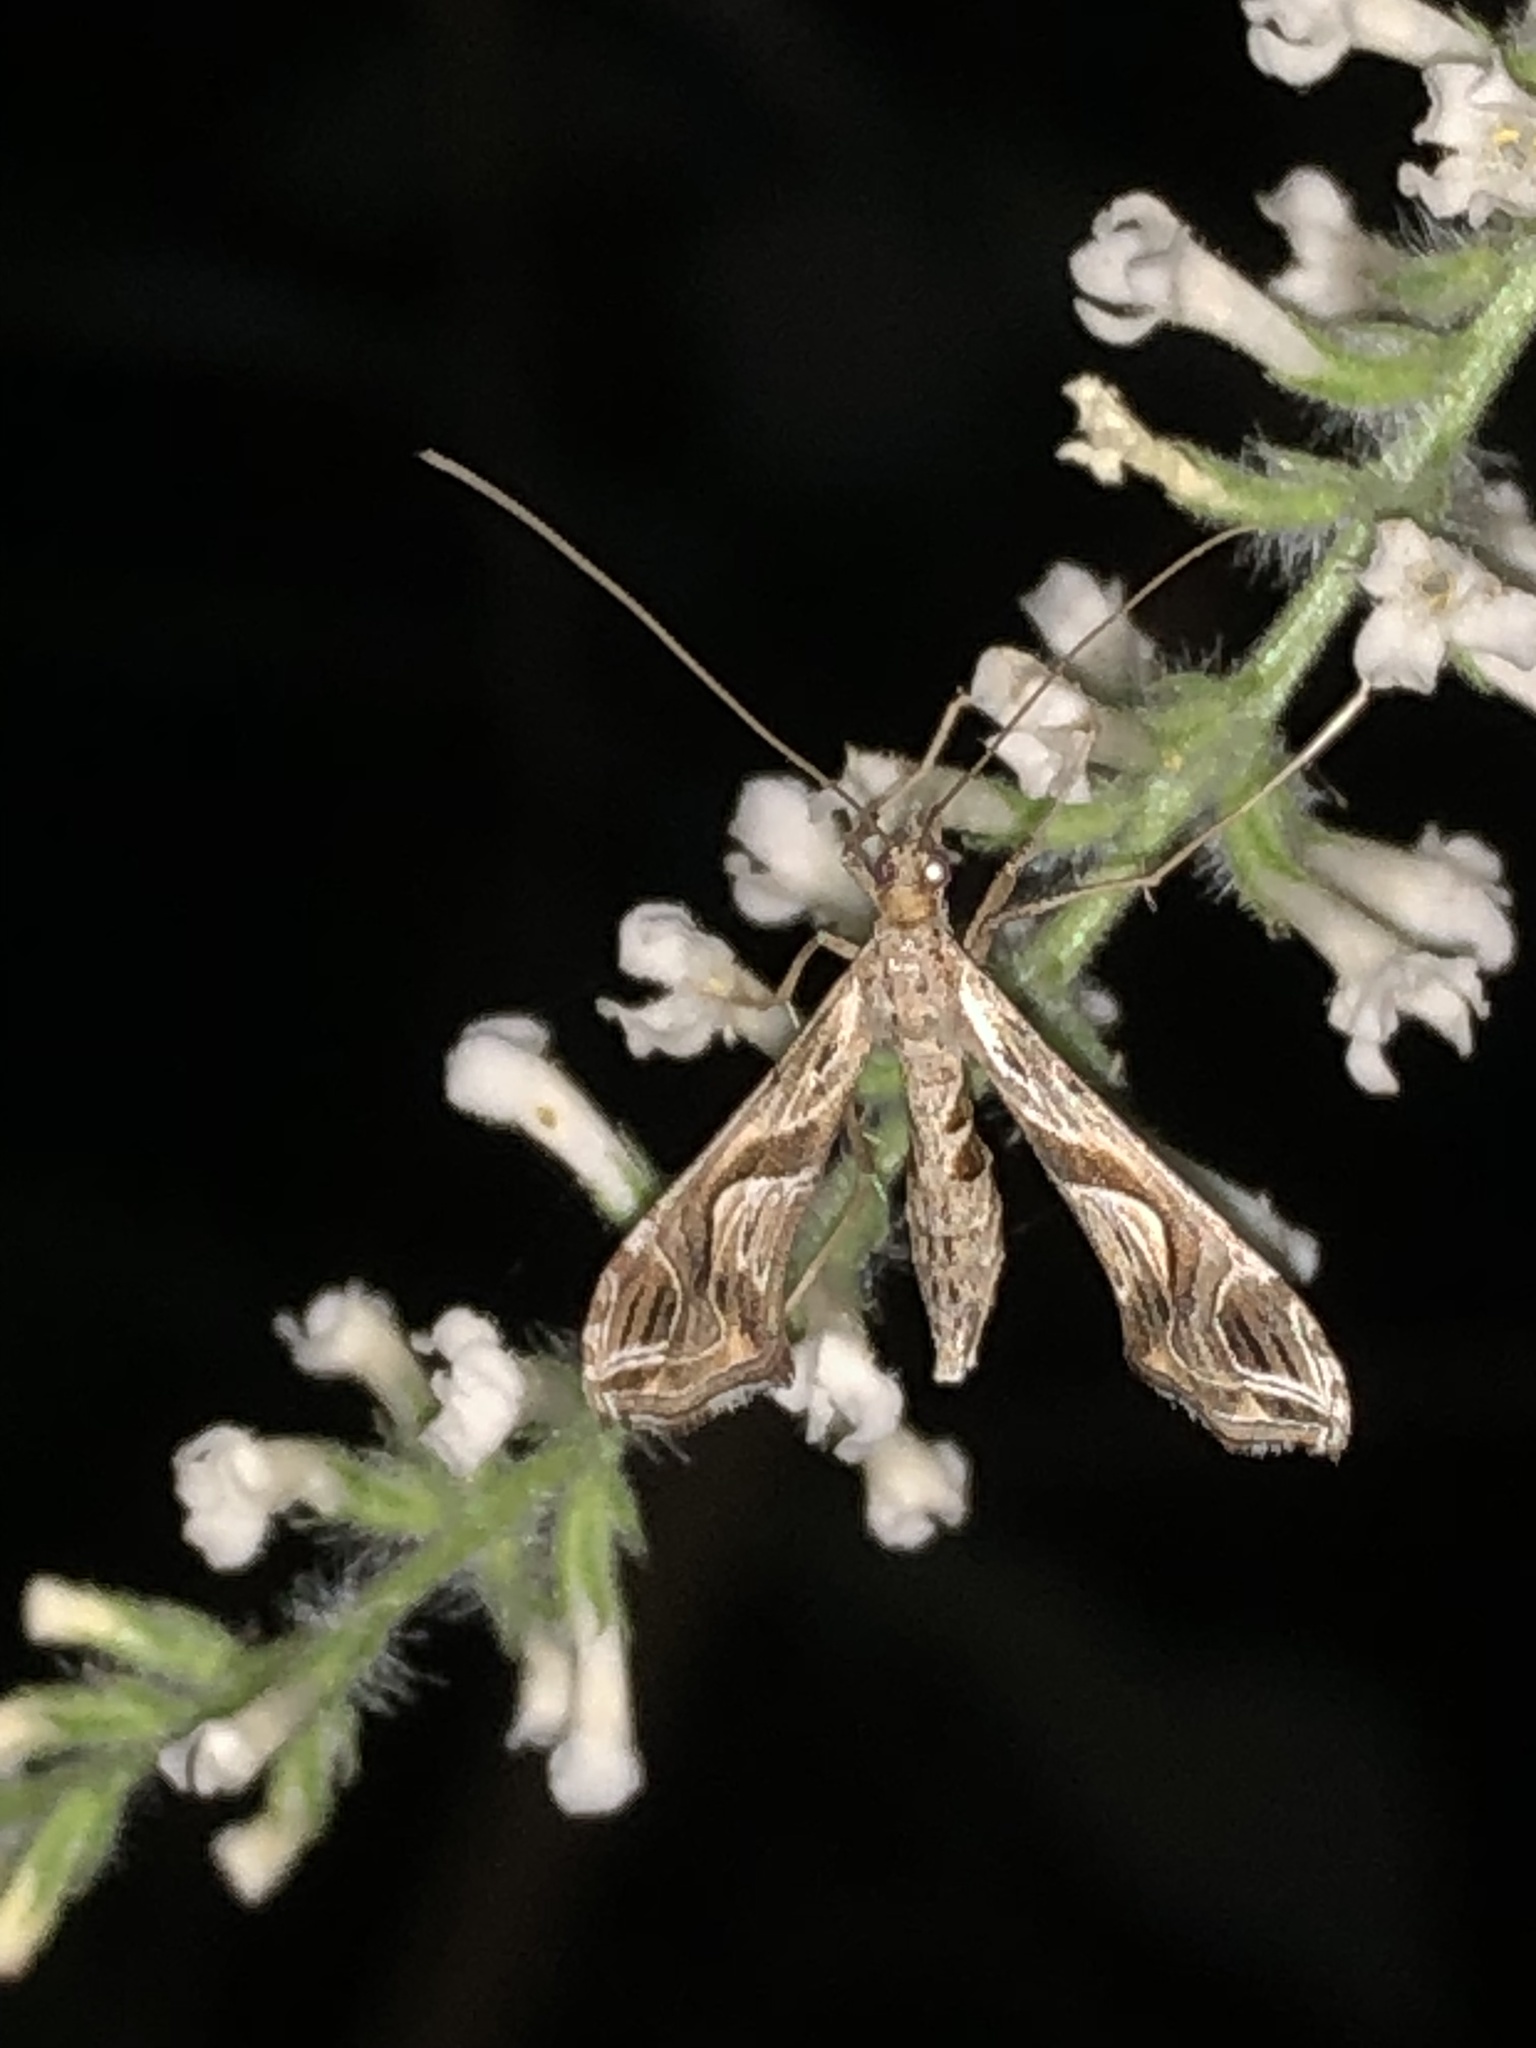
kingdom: Animalia
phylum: Arthropoda
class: Insecta
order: Lepidoptera
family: Crambidae
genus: Lineodes
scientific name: Lineodes integra
